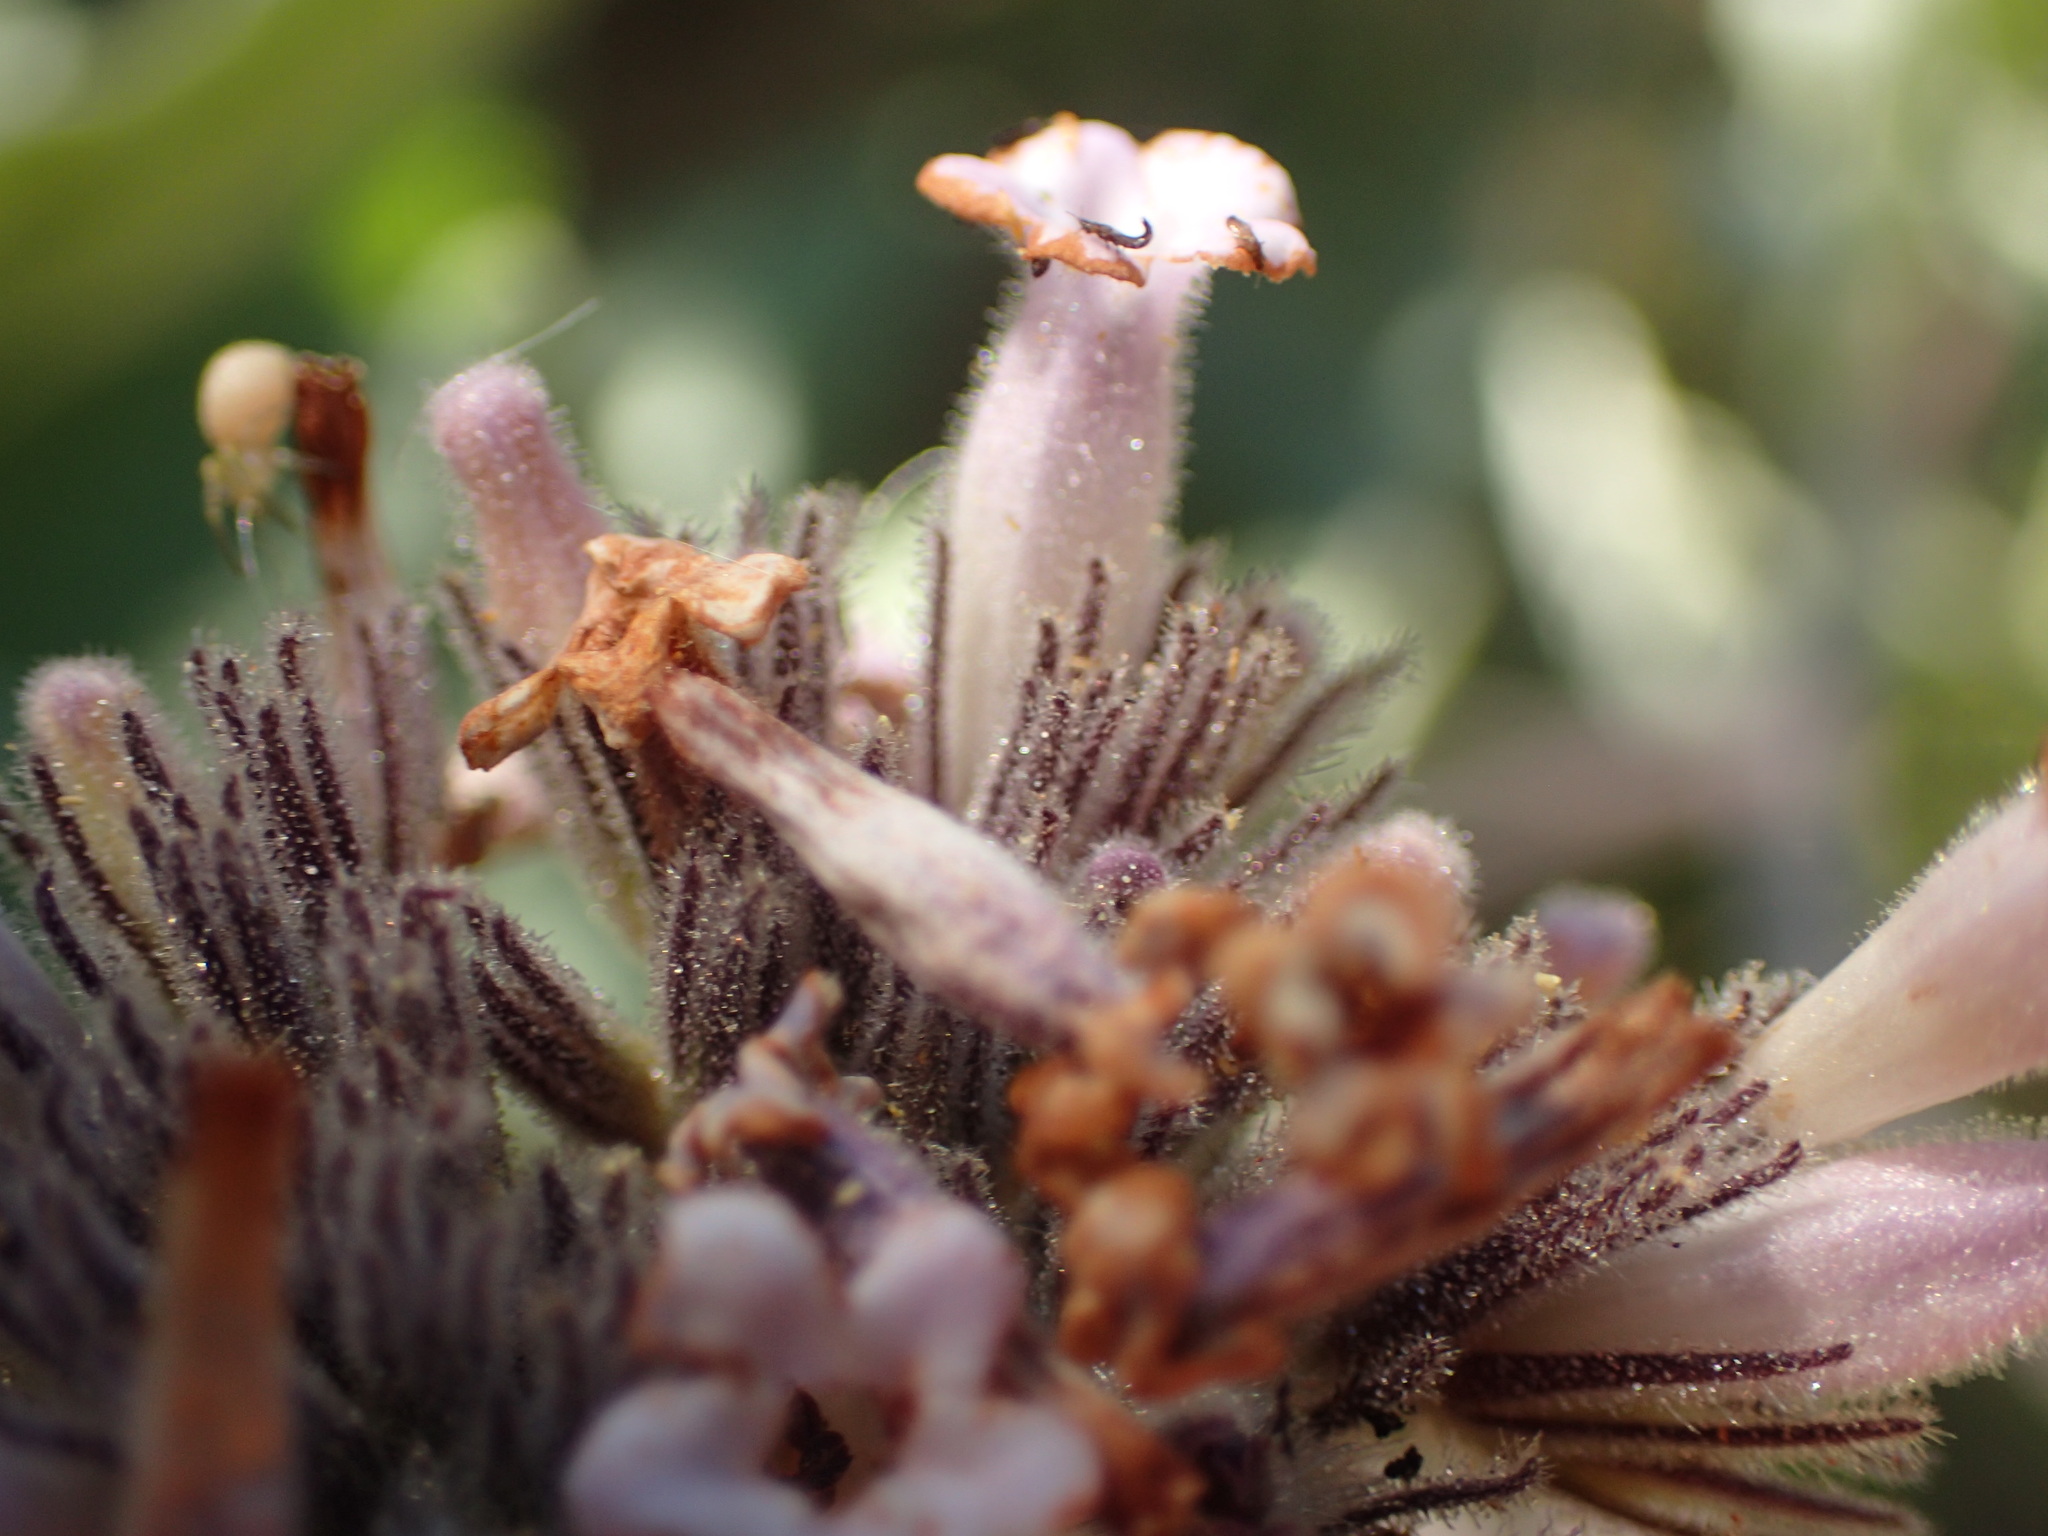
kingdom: Plantae
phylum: Tracheophyta
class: Magnoliopsida
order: Boraginales
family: Namaceae
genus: Eriodictyon
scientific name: Eriodictyon traskiae
